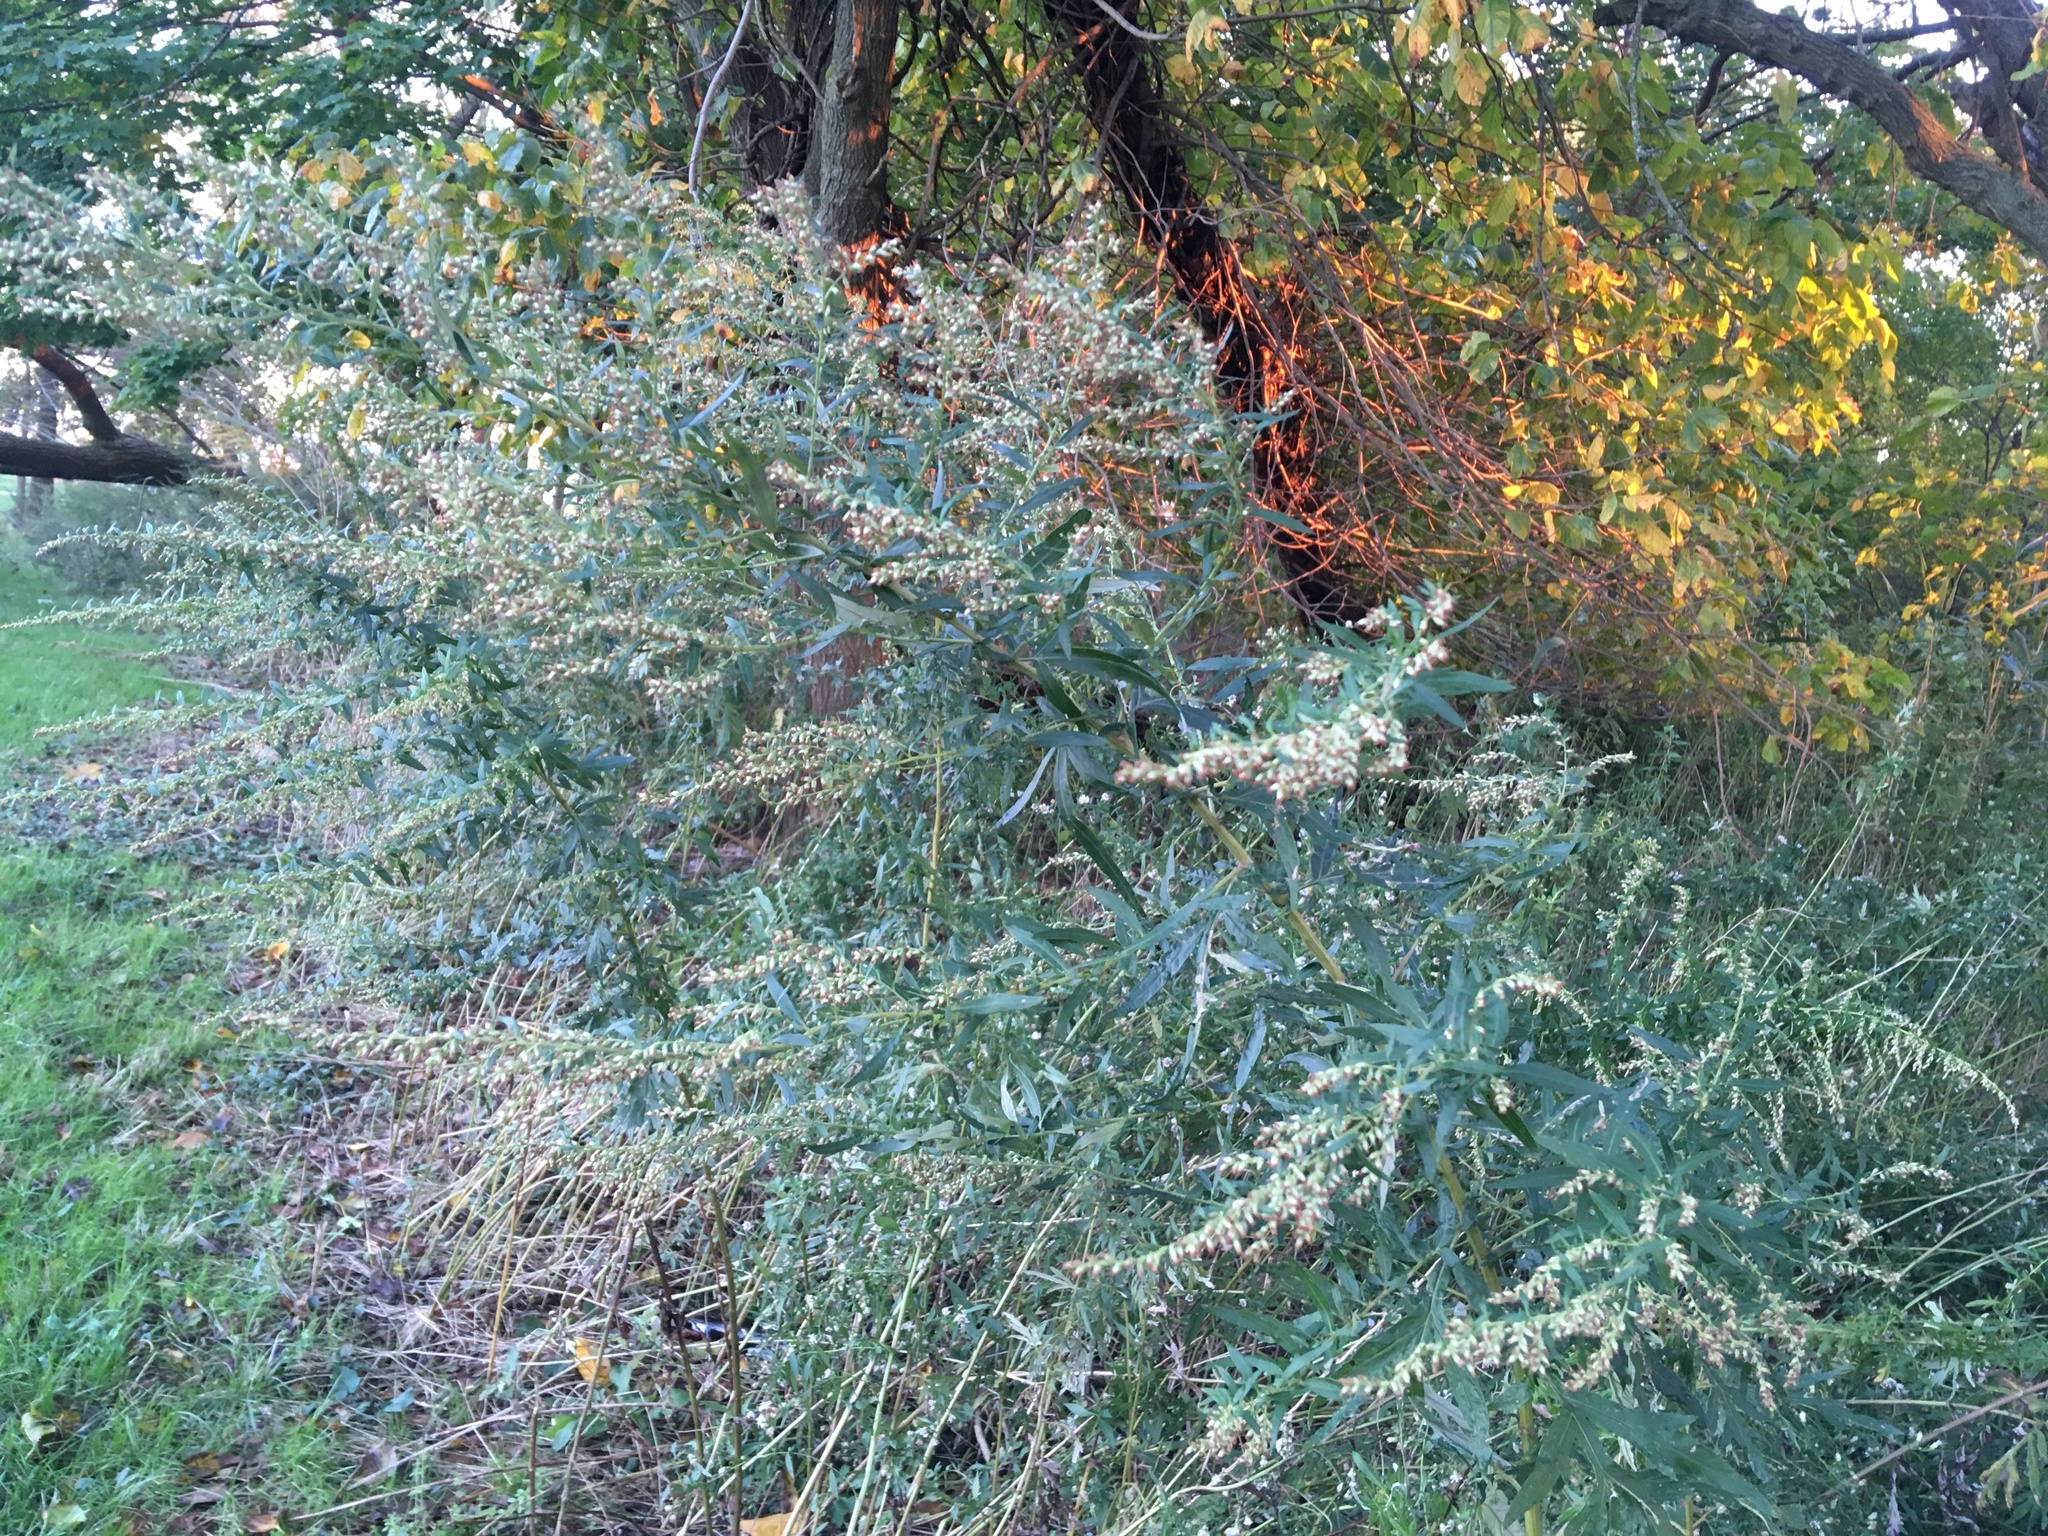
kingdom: Plantae
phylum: Tracheophyta
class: Magnoliopsida
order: Asterales
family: Asteraceae
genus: Artemisia
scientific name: Artemisia vulgaris
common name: Mugwort
